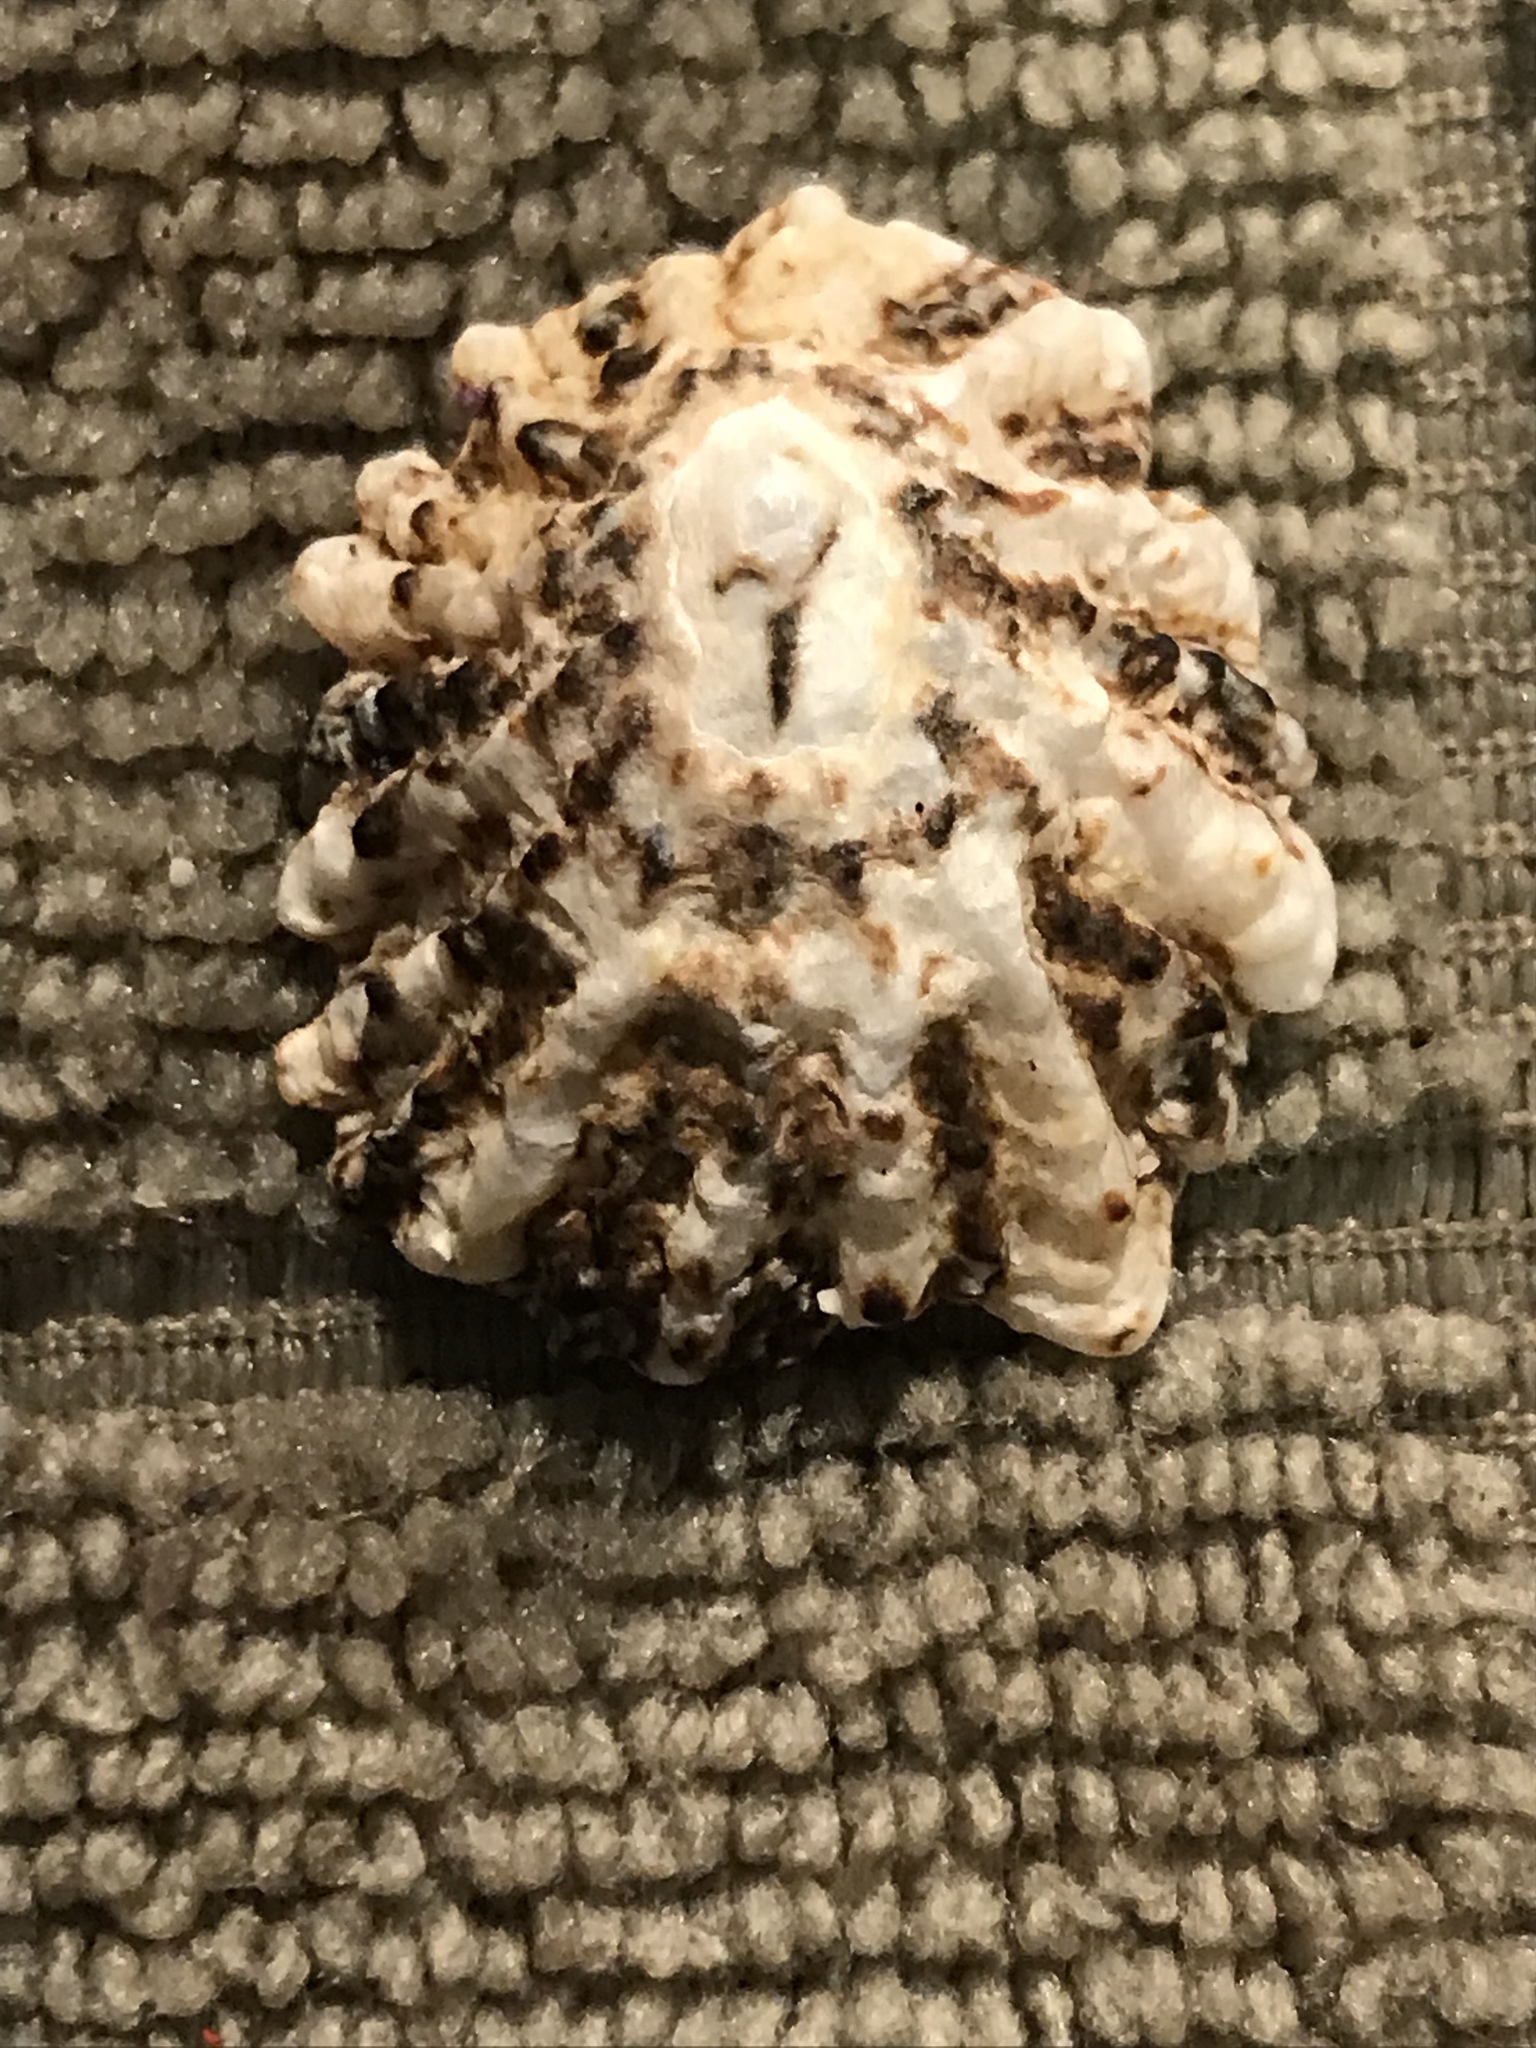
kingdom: Animalia
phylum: Mollusca
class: Gastropoda
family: Lottiidae
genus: Lottia
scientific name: Lottia scabra
